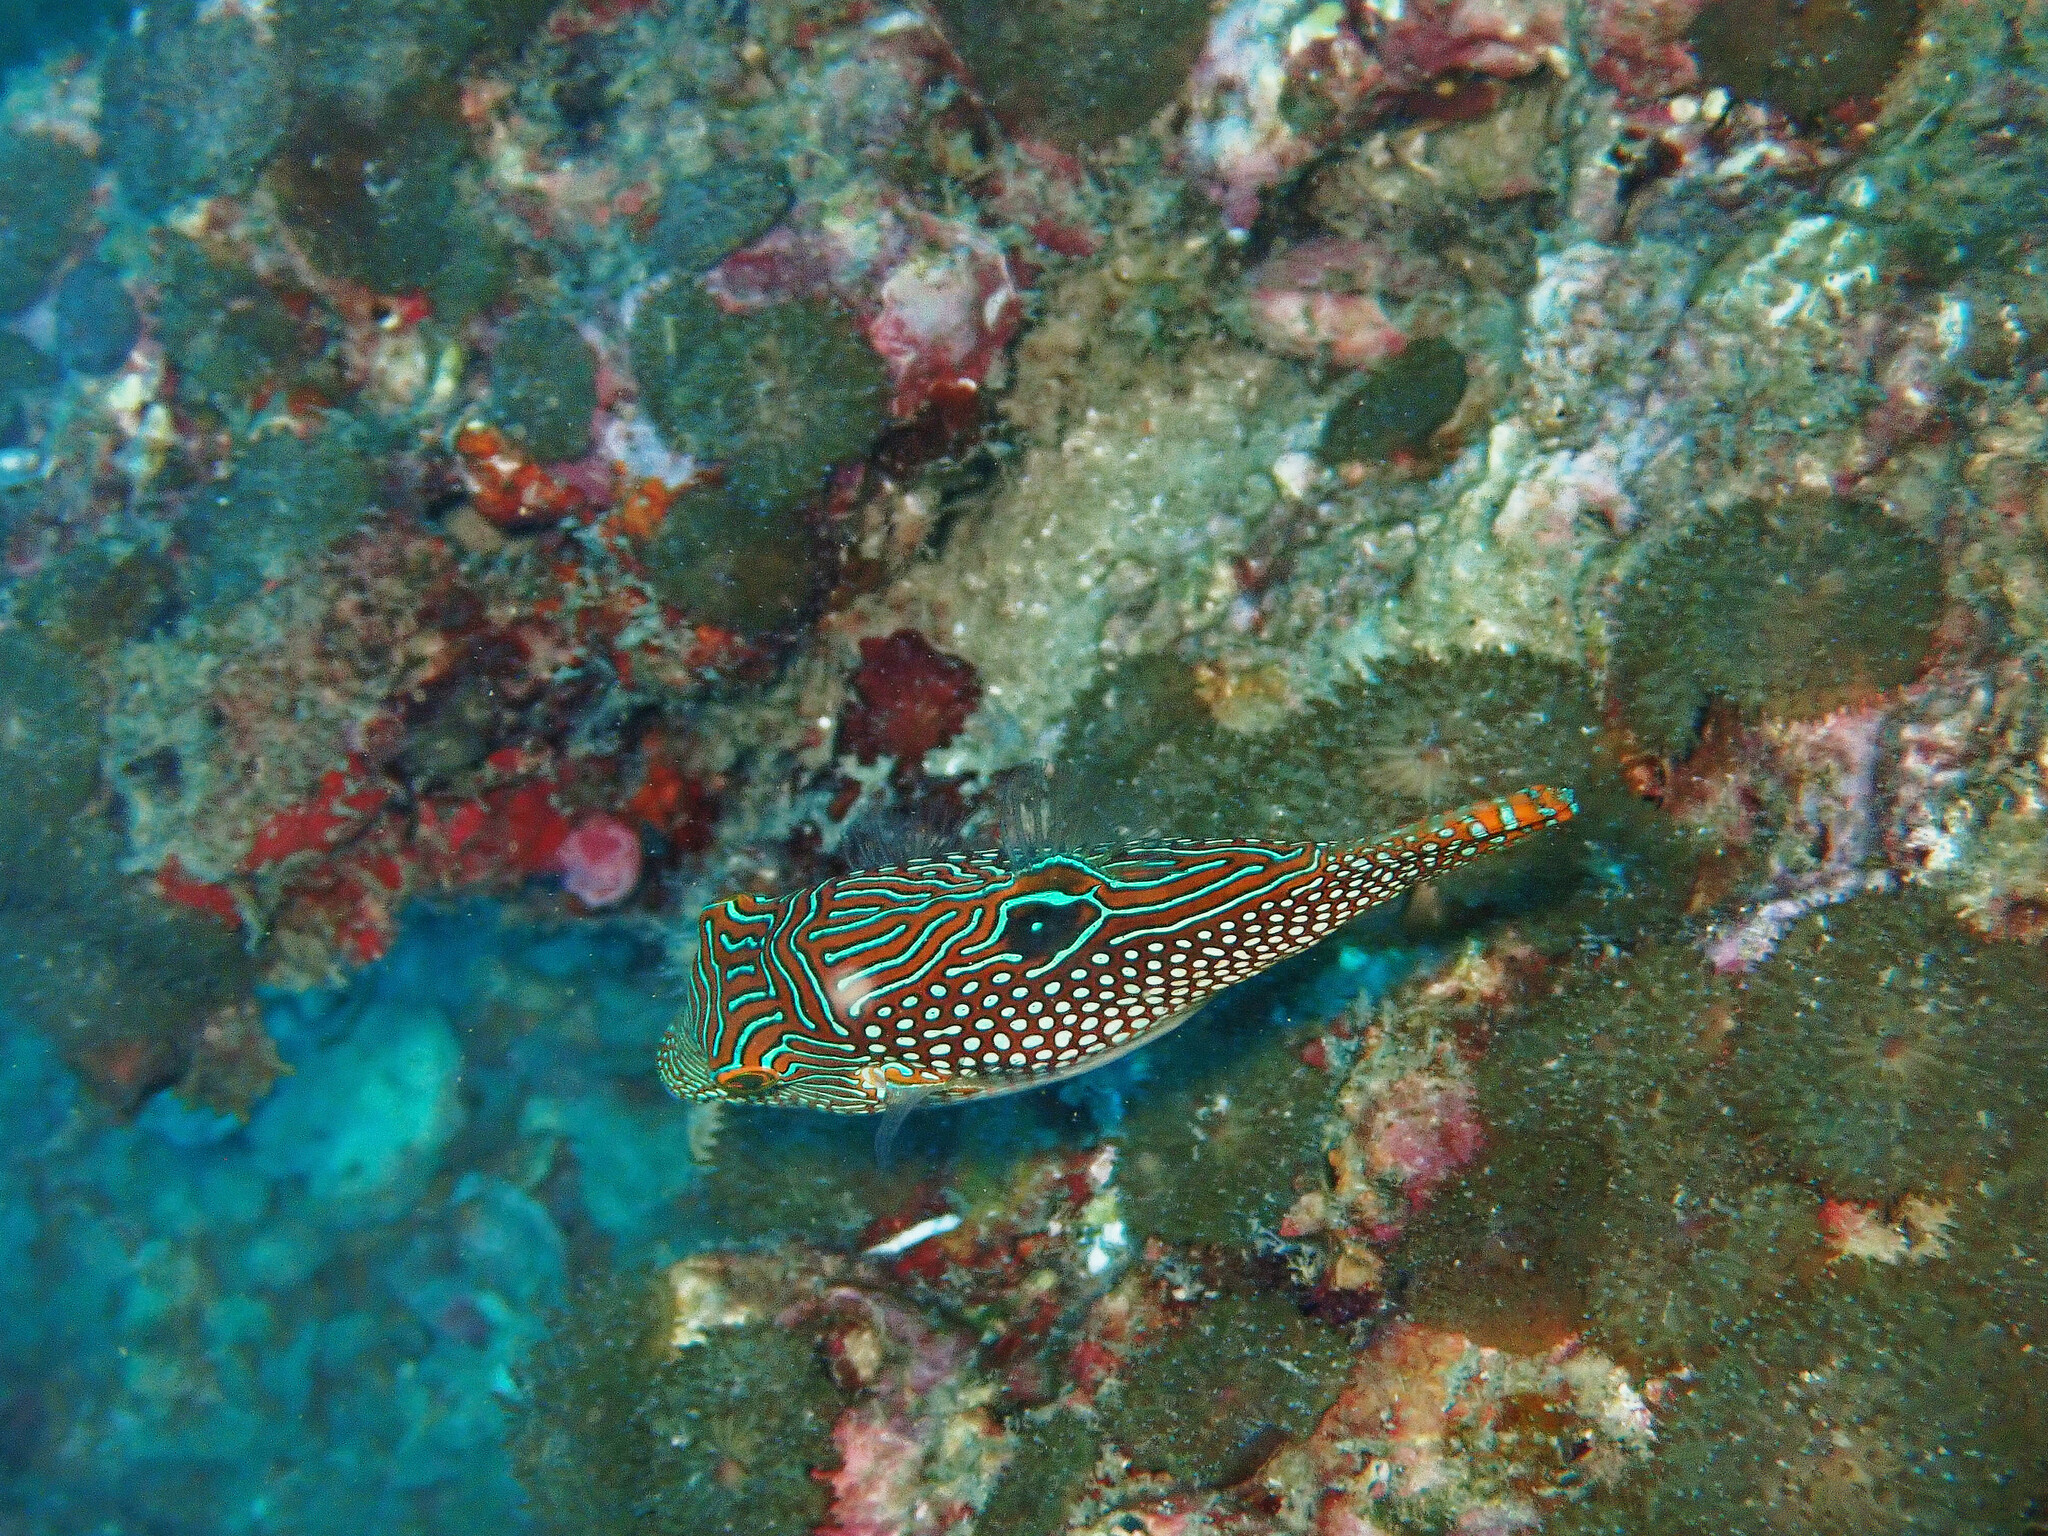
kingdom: Animalia
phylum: Chordata
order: Tetraodontiformes
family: Tetraodontidae
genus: Canthigaster
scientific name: Canthigaster petersii
